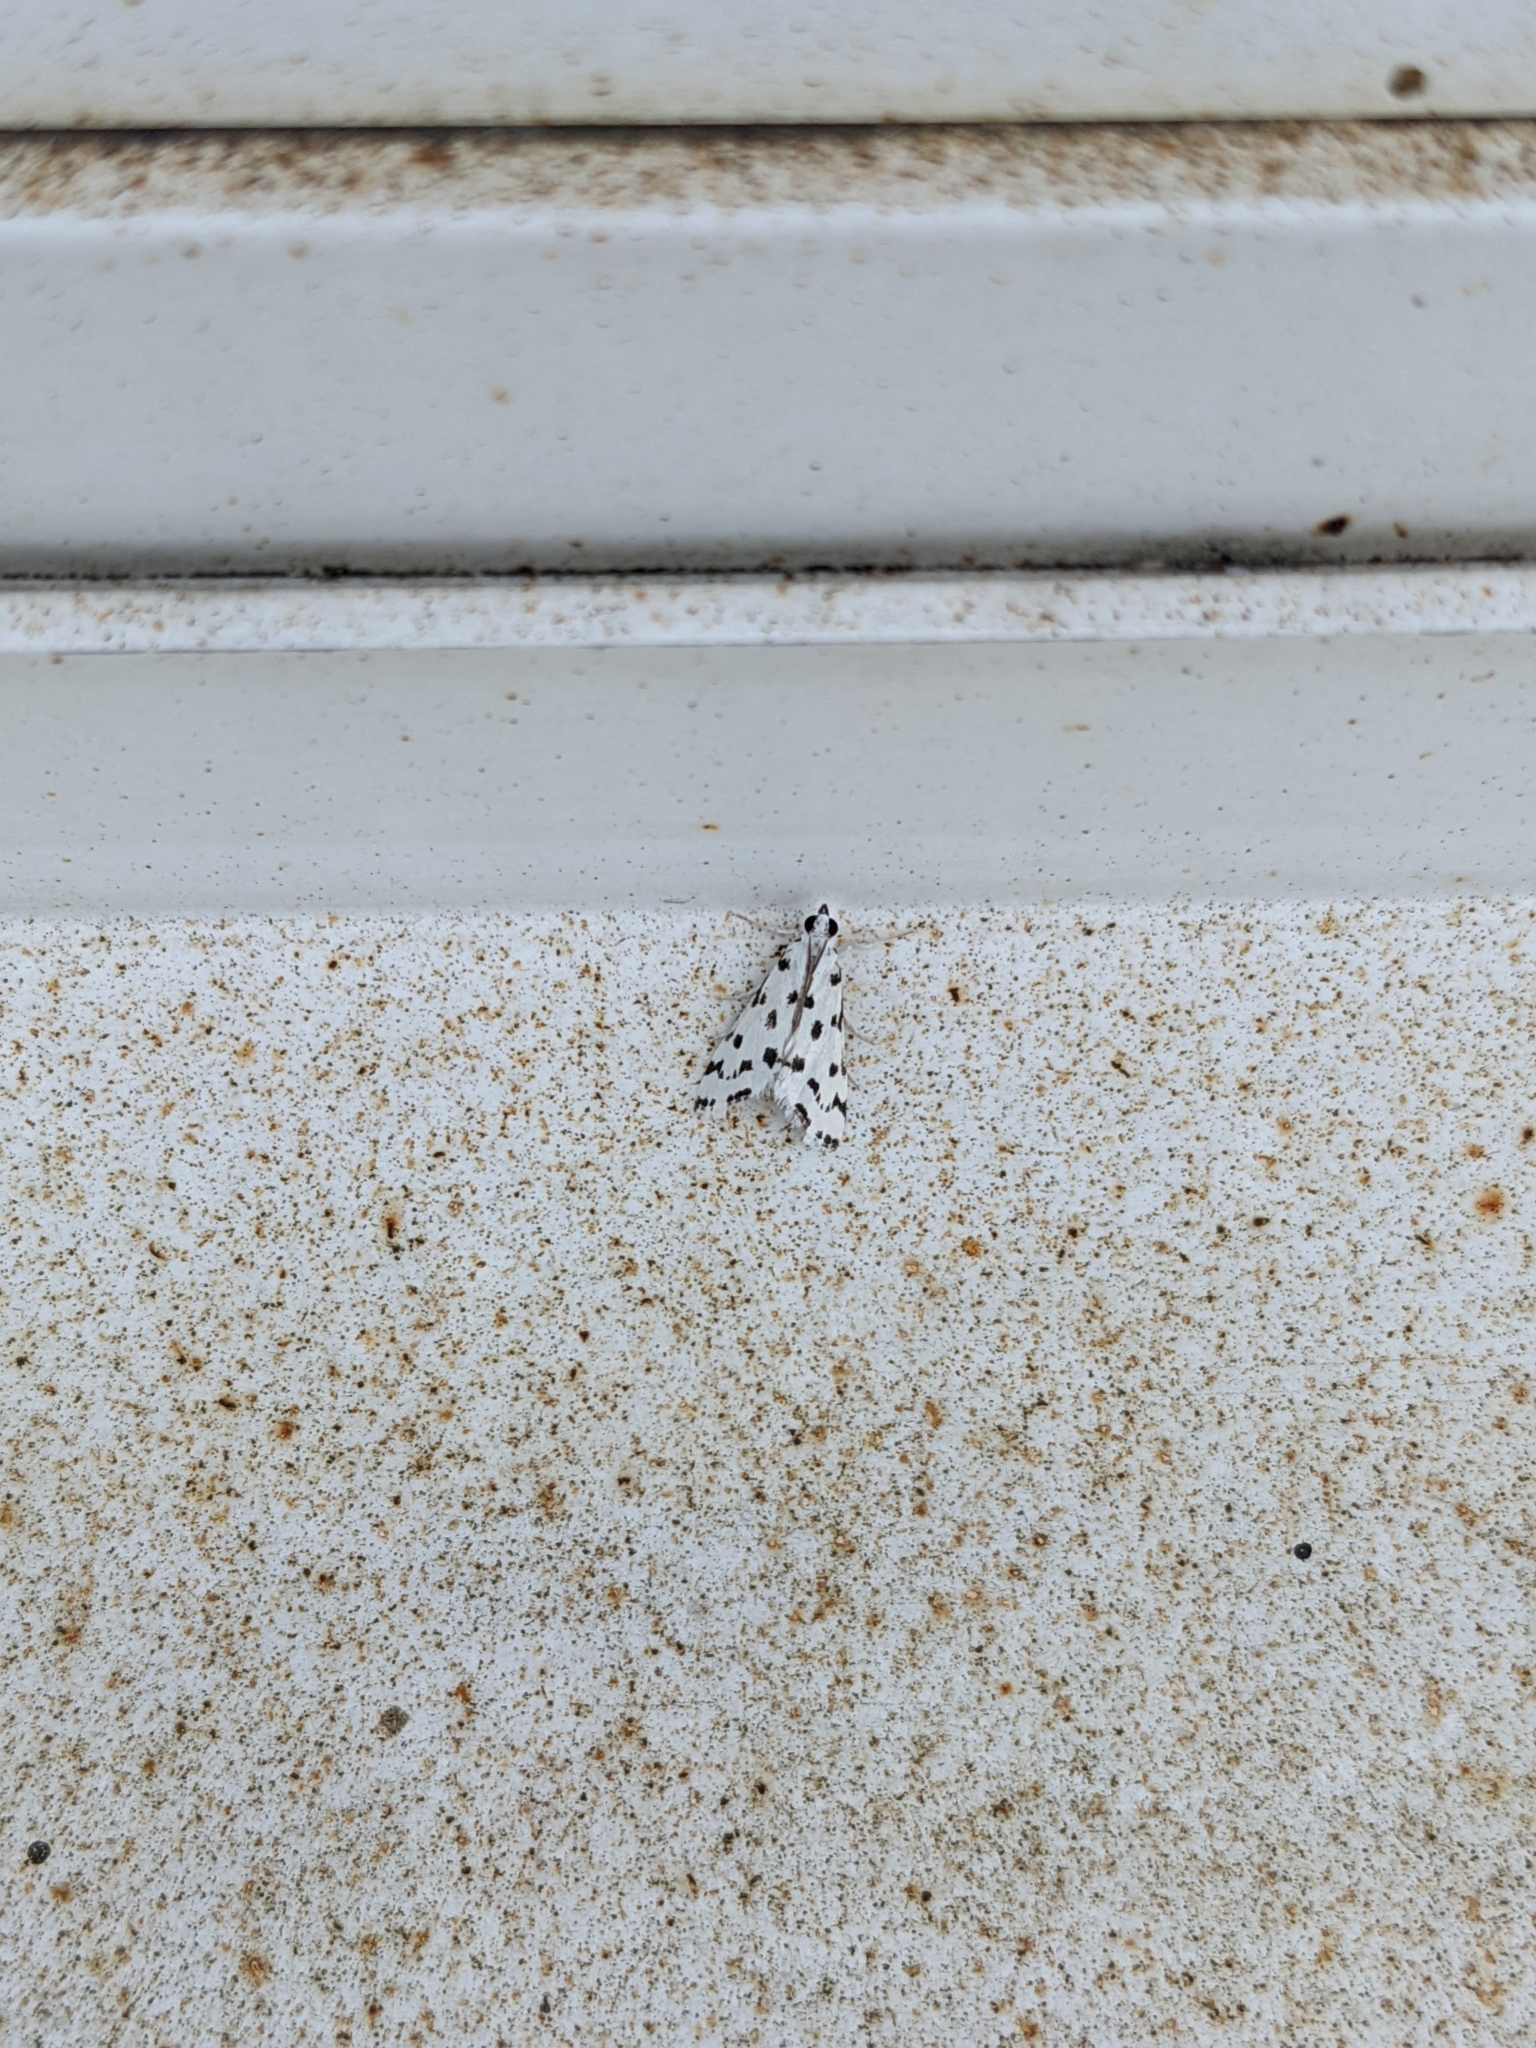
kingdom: Animalia
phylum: Arthropoda
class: Insecta
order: Lepidoptera
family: Crambidae
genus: Eustixia
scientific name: Eustixia pupula
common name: American cabbage pearl
